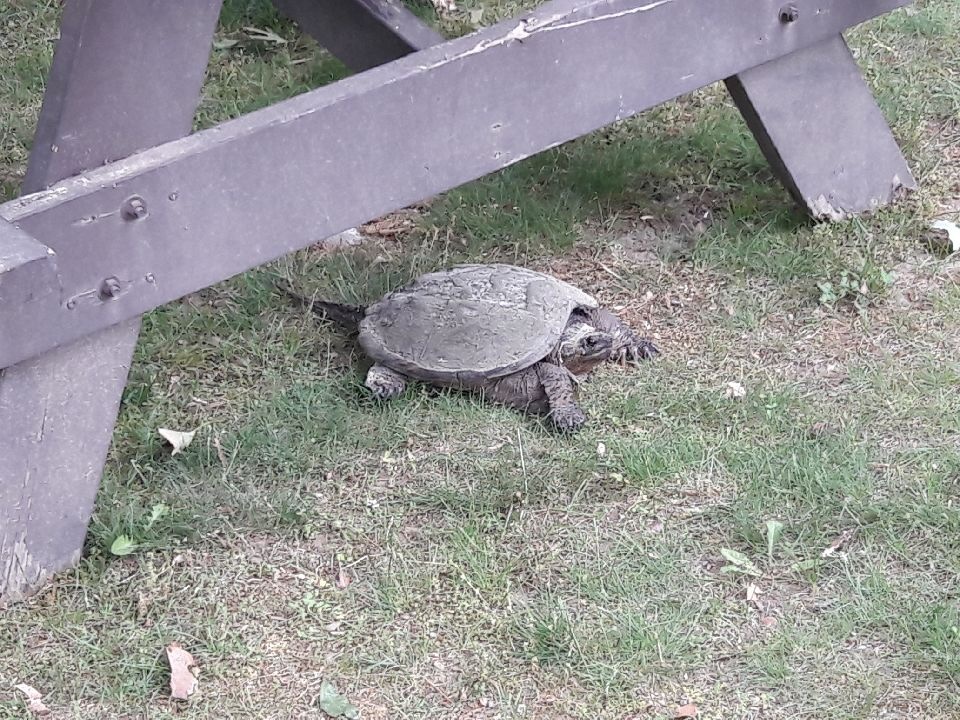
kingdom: Animalia
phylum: Chordata
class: Testudines
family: Chelydridae
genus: Chelydra
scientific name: Chelydra serpentina
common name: Common snapping turtle
